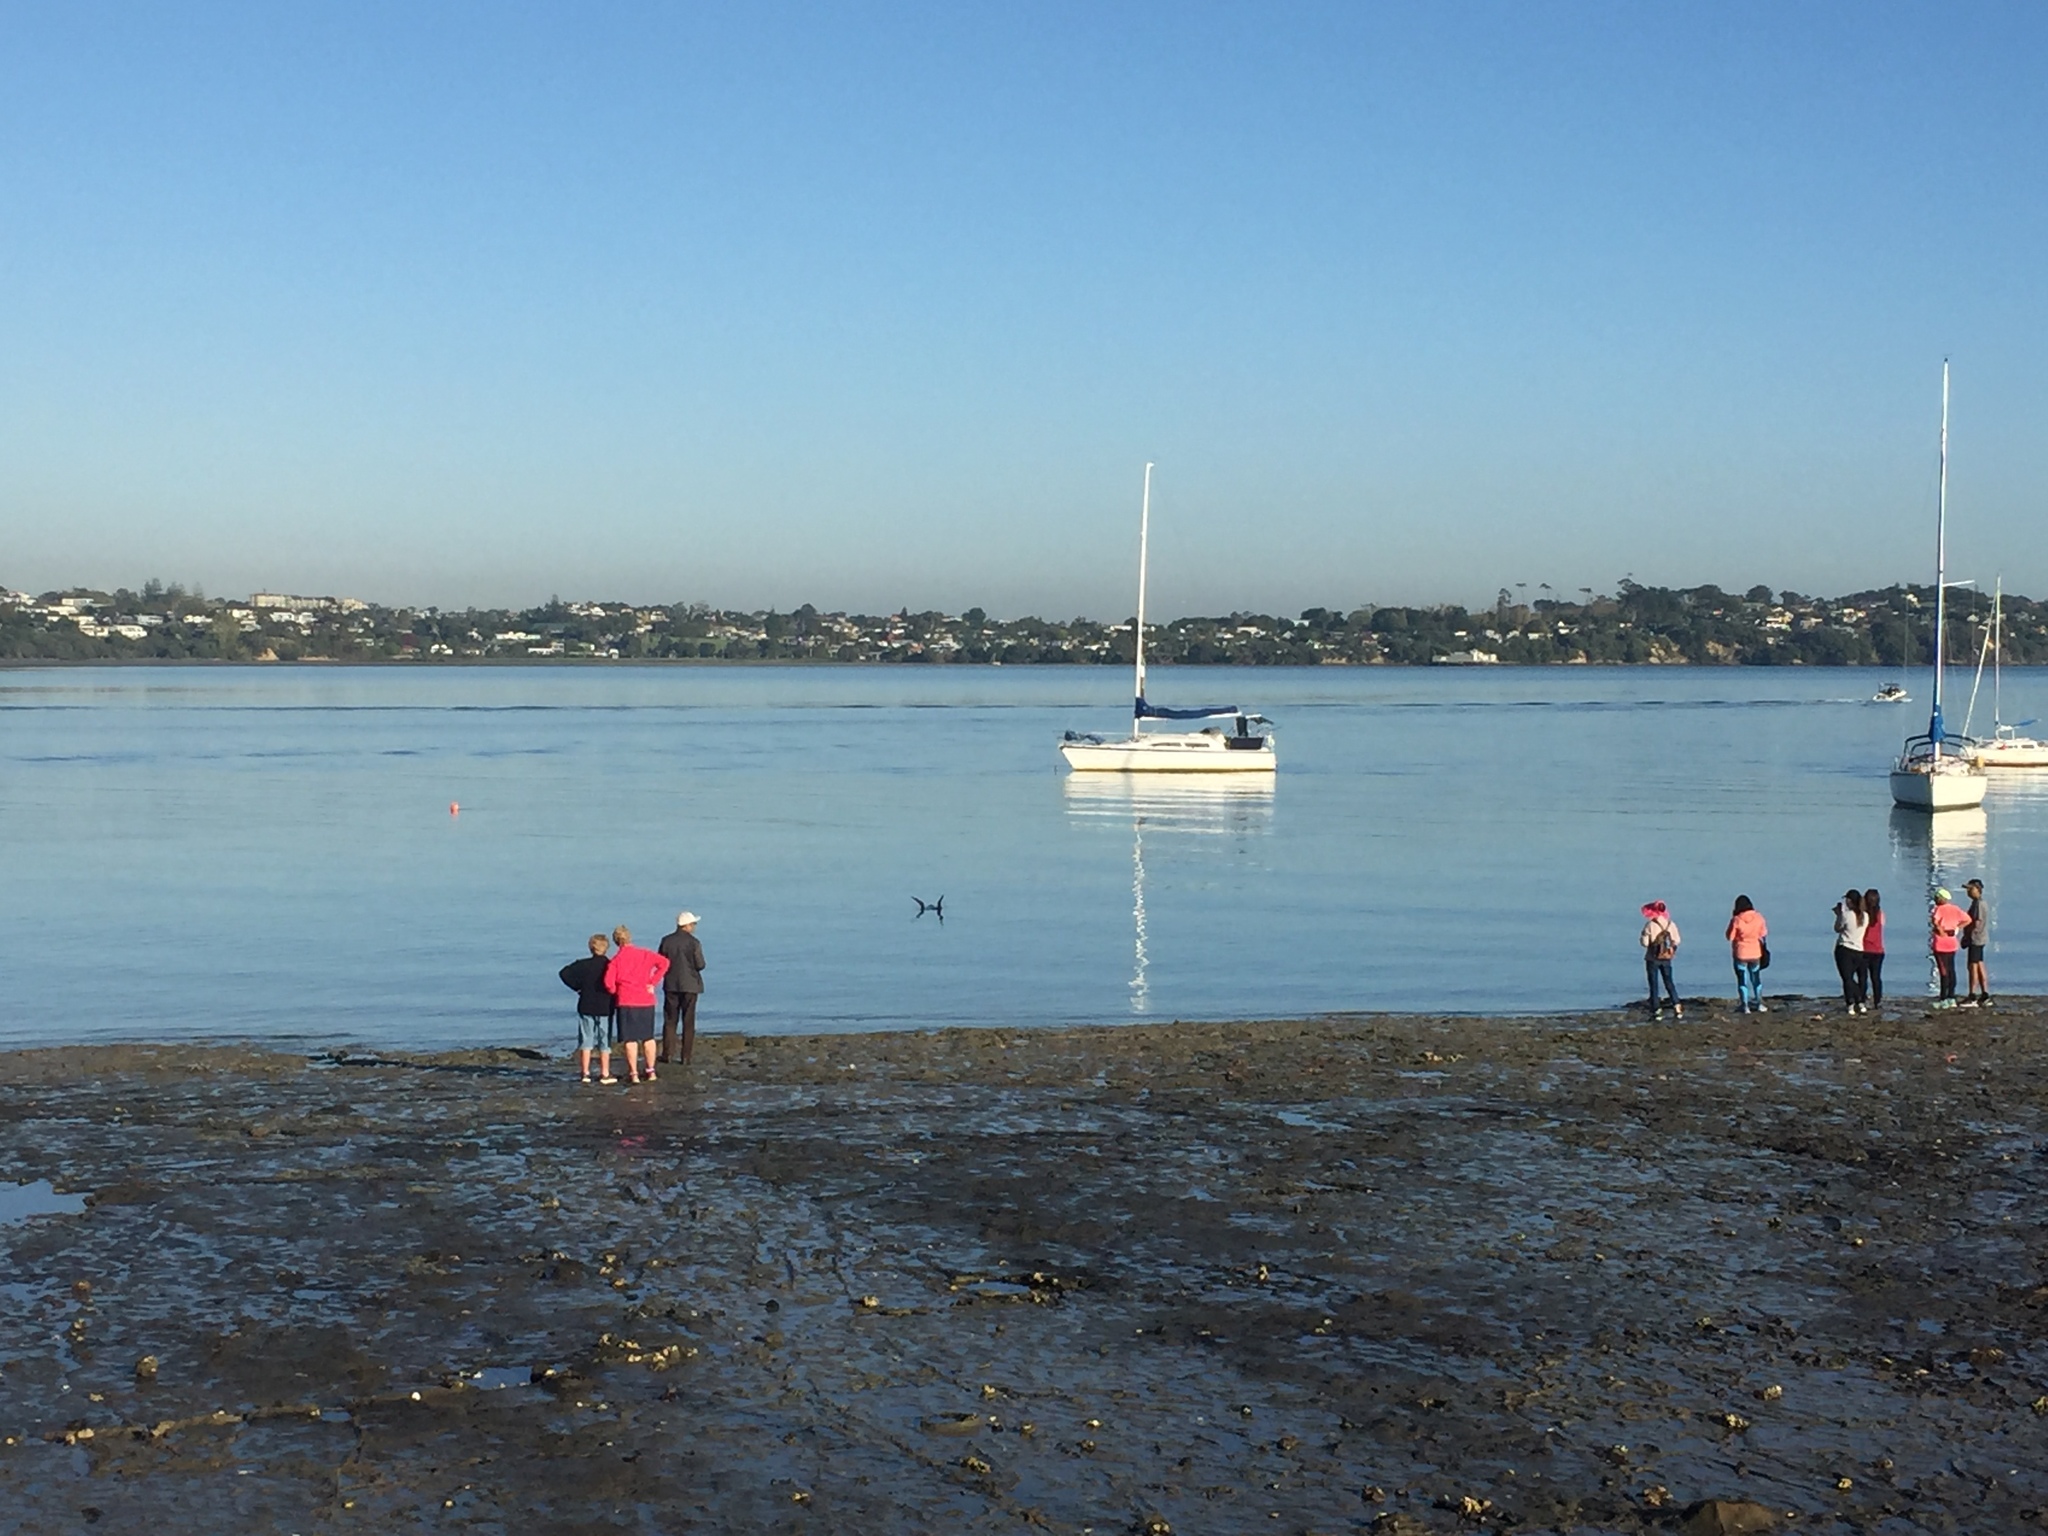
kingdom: Animalia
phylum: Chordata
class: Mammalia
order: Carnivora
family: Otariidae
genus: Arctocephalus
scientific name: Arctocephalus forsteri
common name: New zealand fur seal
